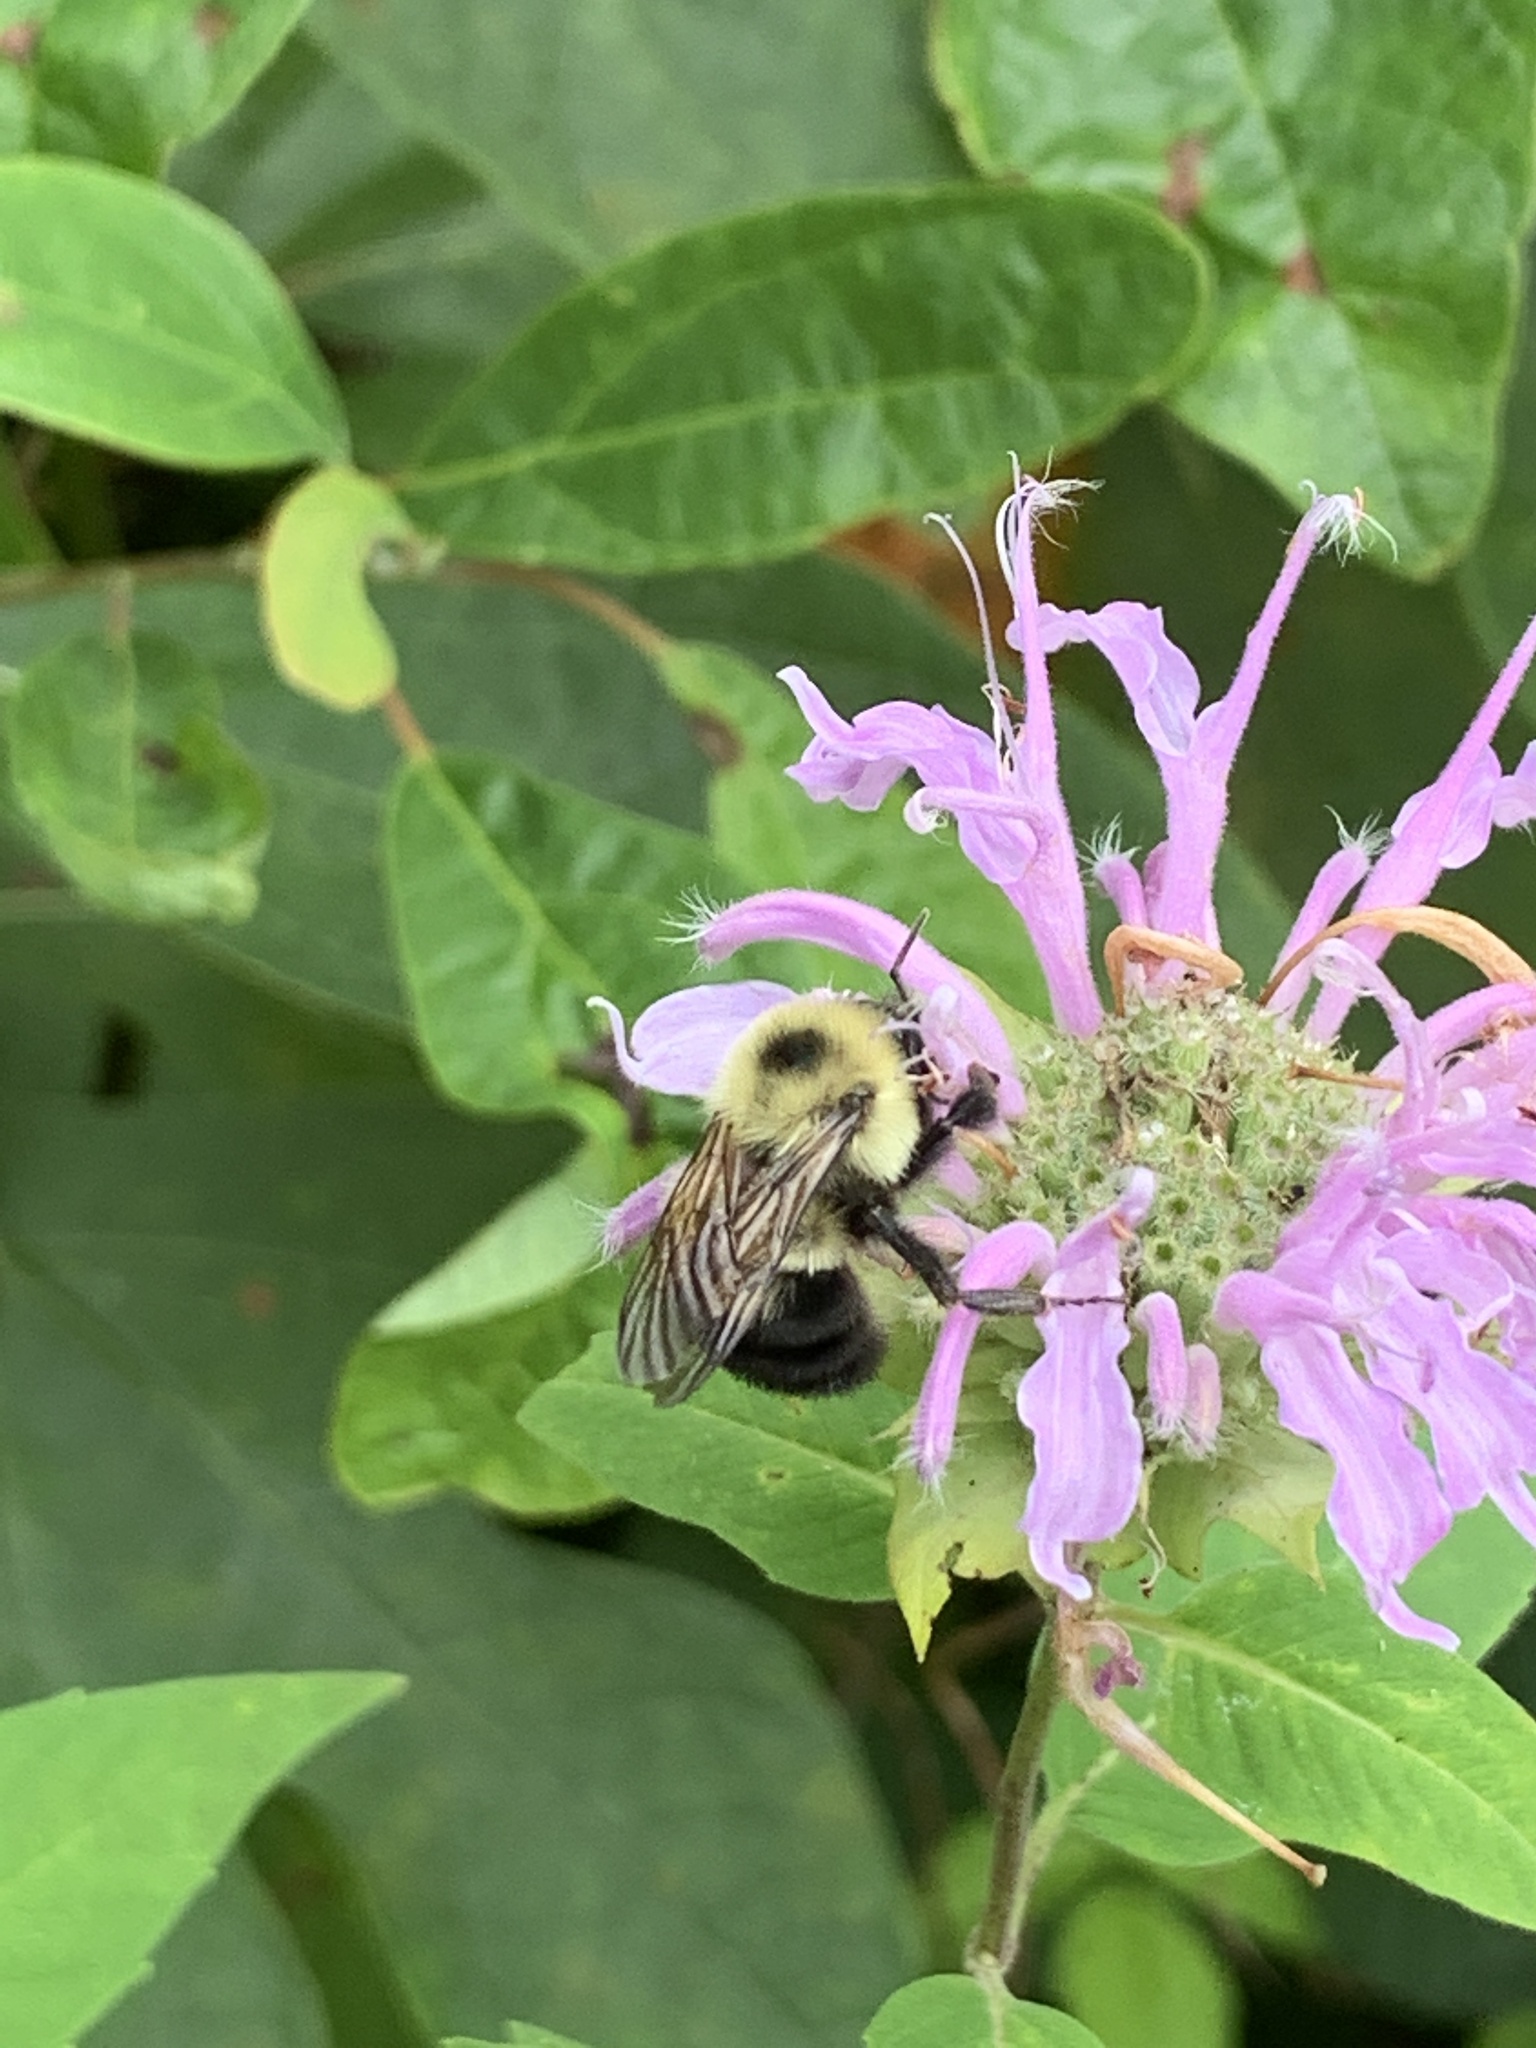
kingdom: Animalia
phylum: Arthropoda
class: Insecta
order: Hymenoptera
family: Apidae
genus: Bombus
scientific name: Bombus bimaculatus
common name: Two-spotted bumble bee
